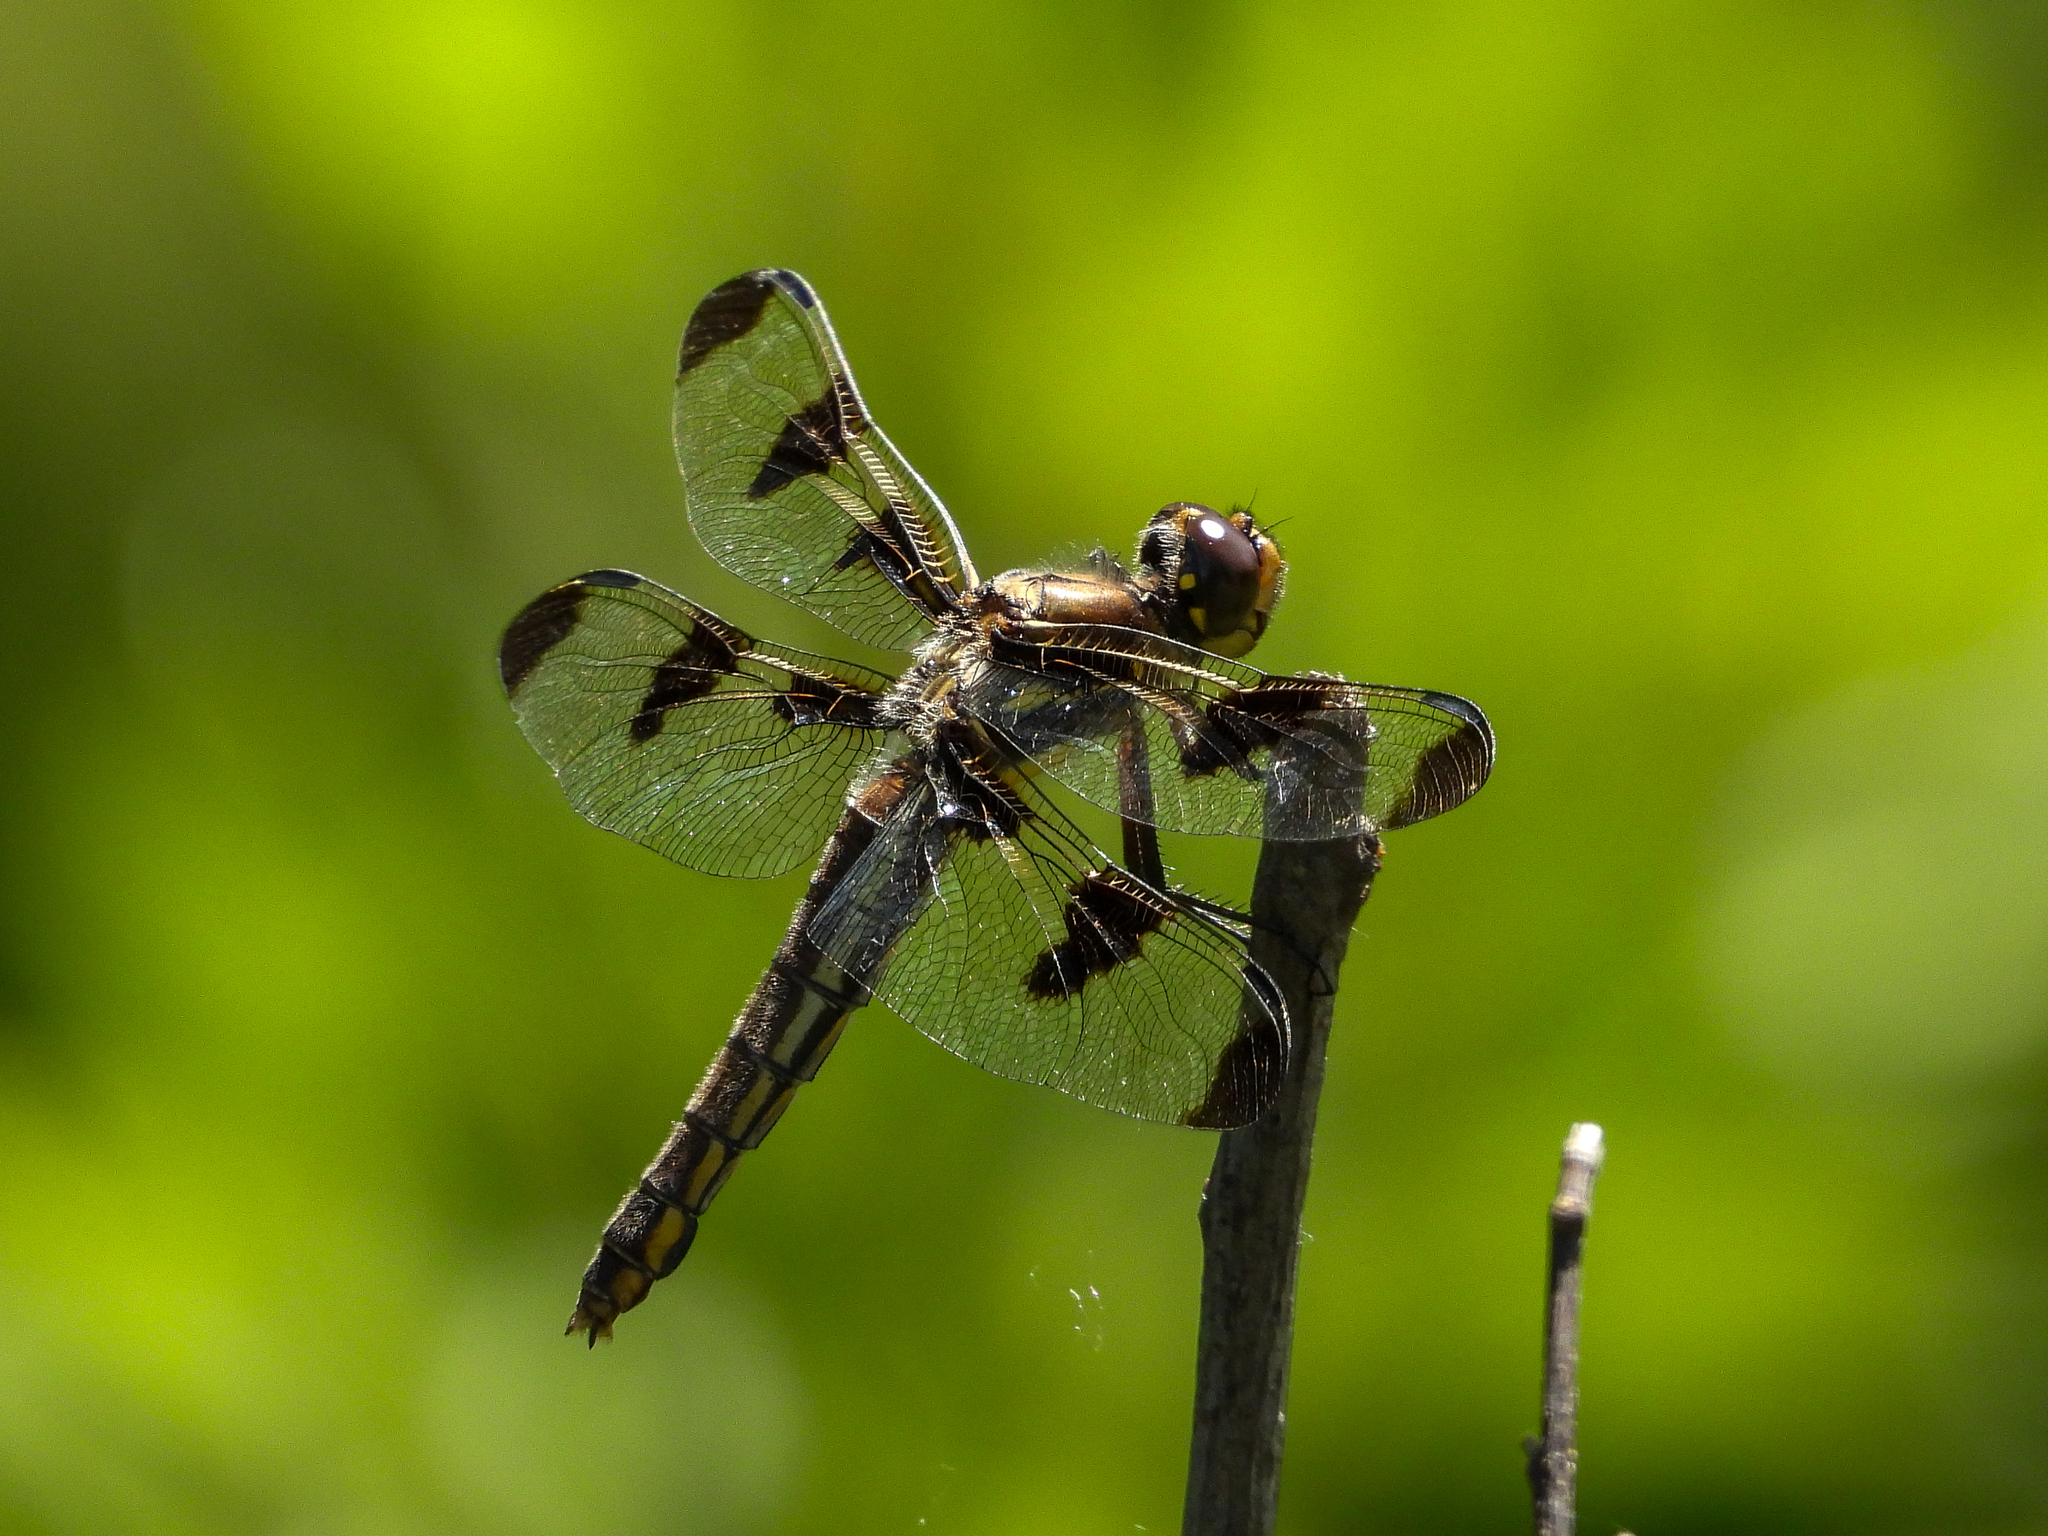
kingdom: Animalia
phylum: Arthropoda
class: Insecta
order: Odonata
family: Libellulidae
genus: Libellula
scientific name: Libellula pulchella
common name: Twelve-spotted skimmer
